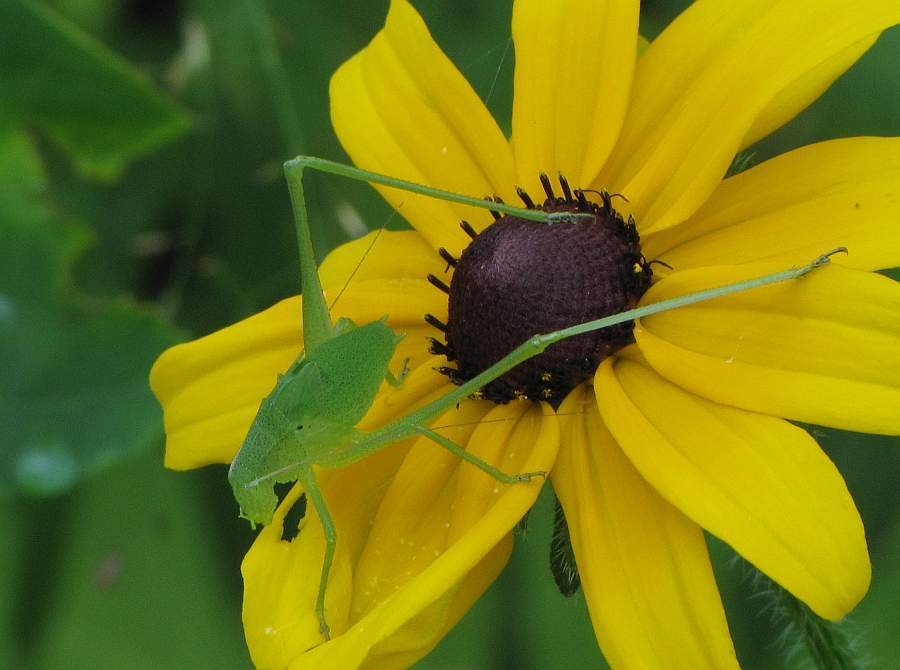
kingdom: Animalia
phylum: Arthropoda
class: Insecta
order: Orthoptera
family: Tettigoniidae
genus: Amblycorypha
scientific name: Amblycorypha oblongifolia
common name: Oblong-winged katydid
